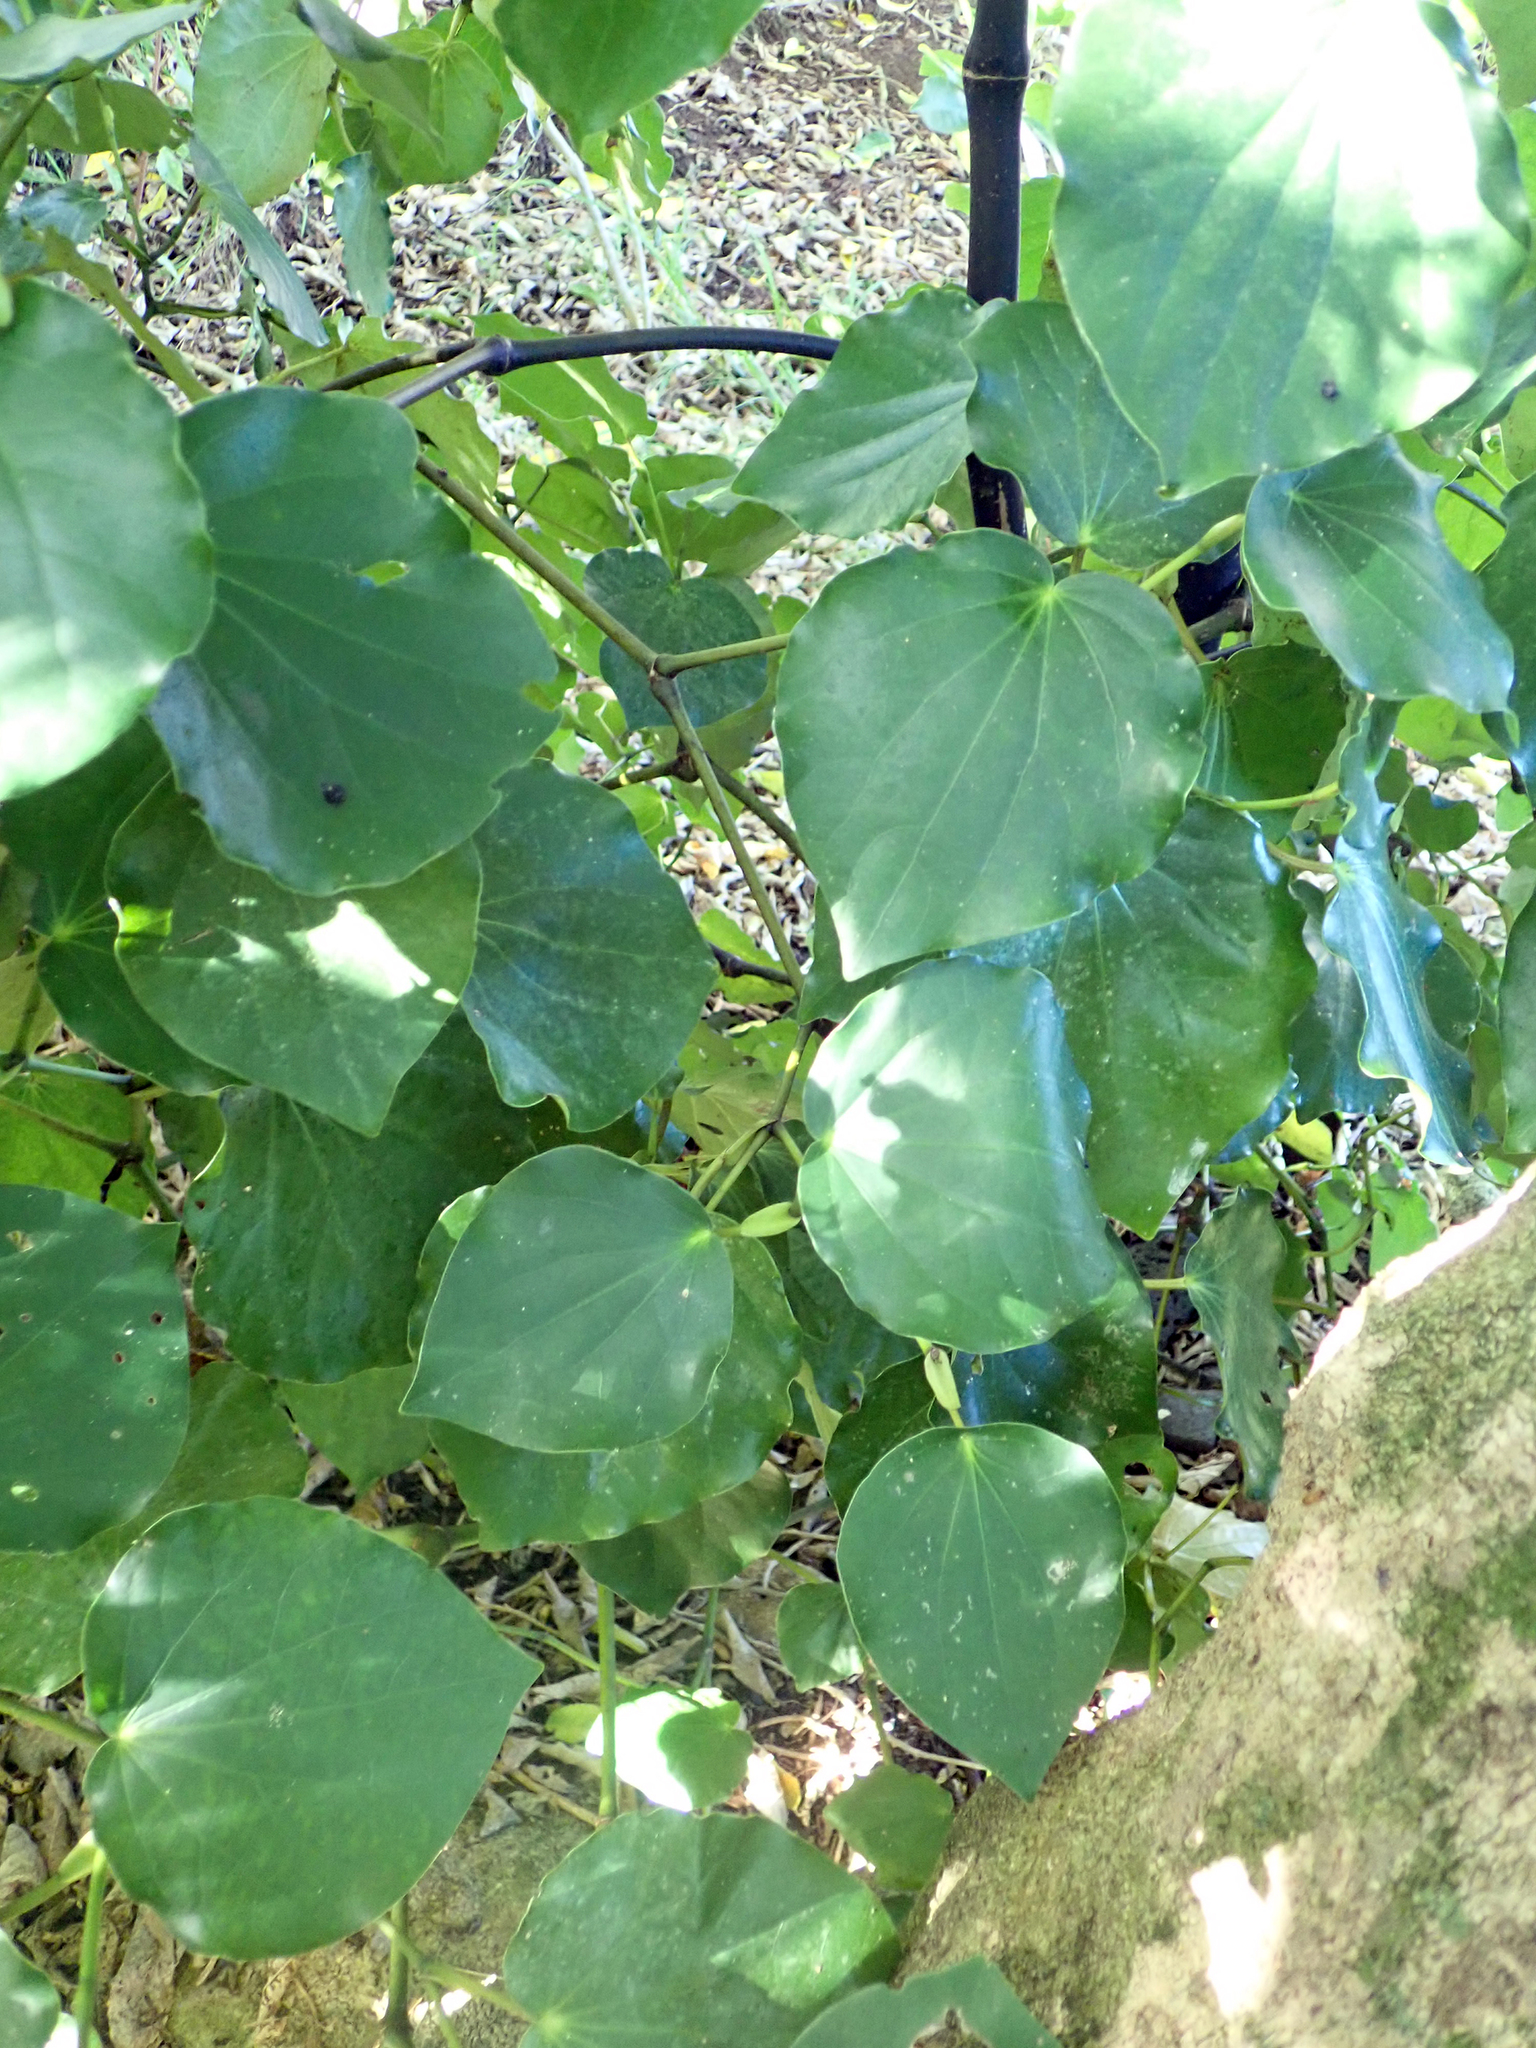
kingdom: Plantae
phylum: Tracheophyta
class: Magnoliopsida
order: Piperales
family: Piperaceae
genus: Macropiper
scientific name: Macropiper excelsum
